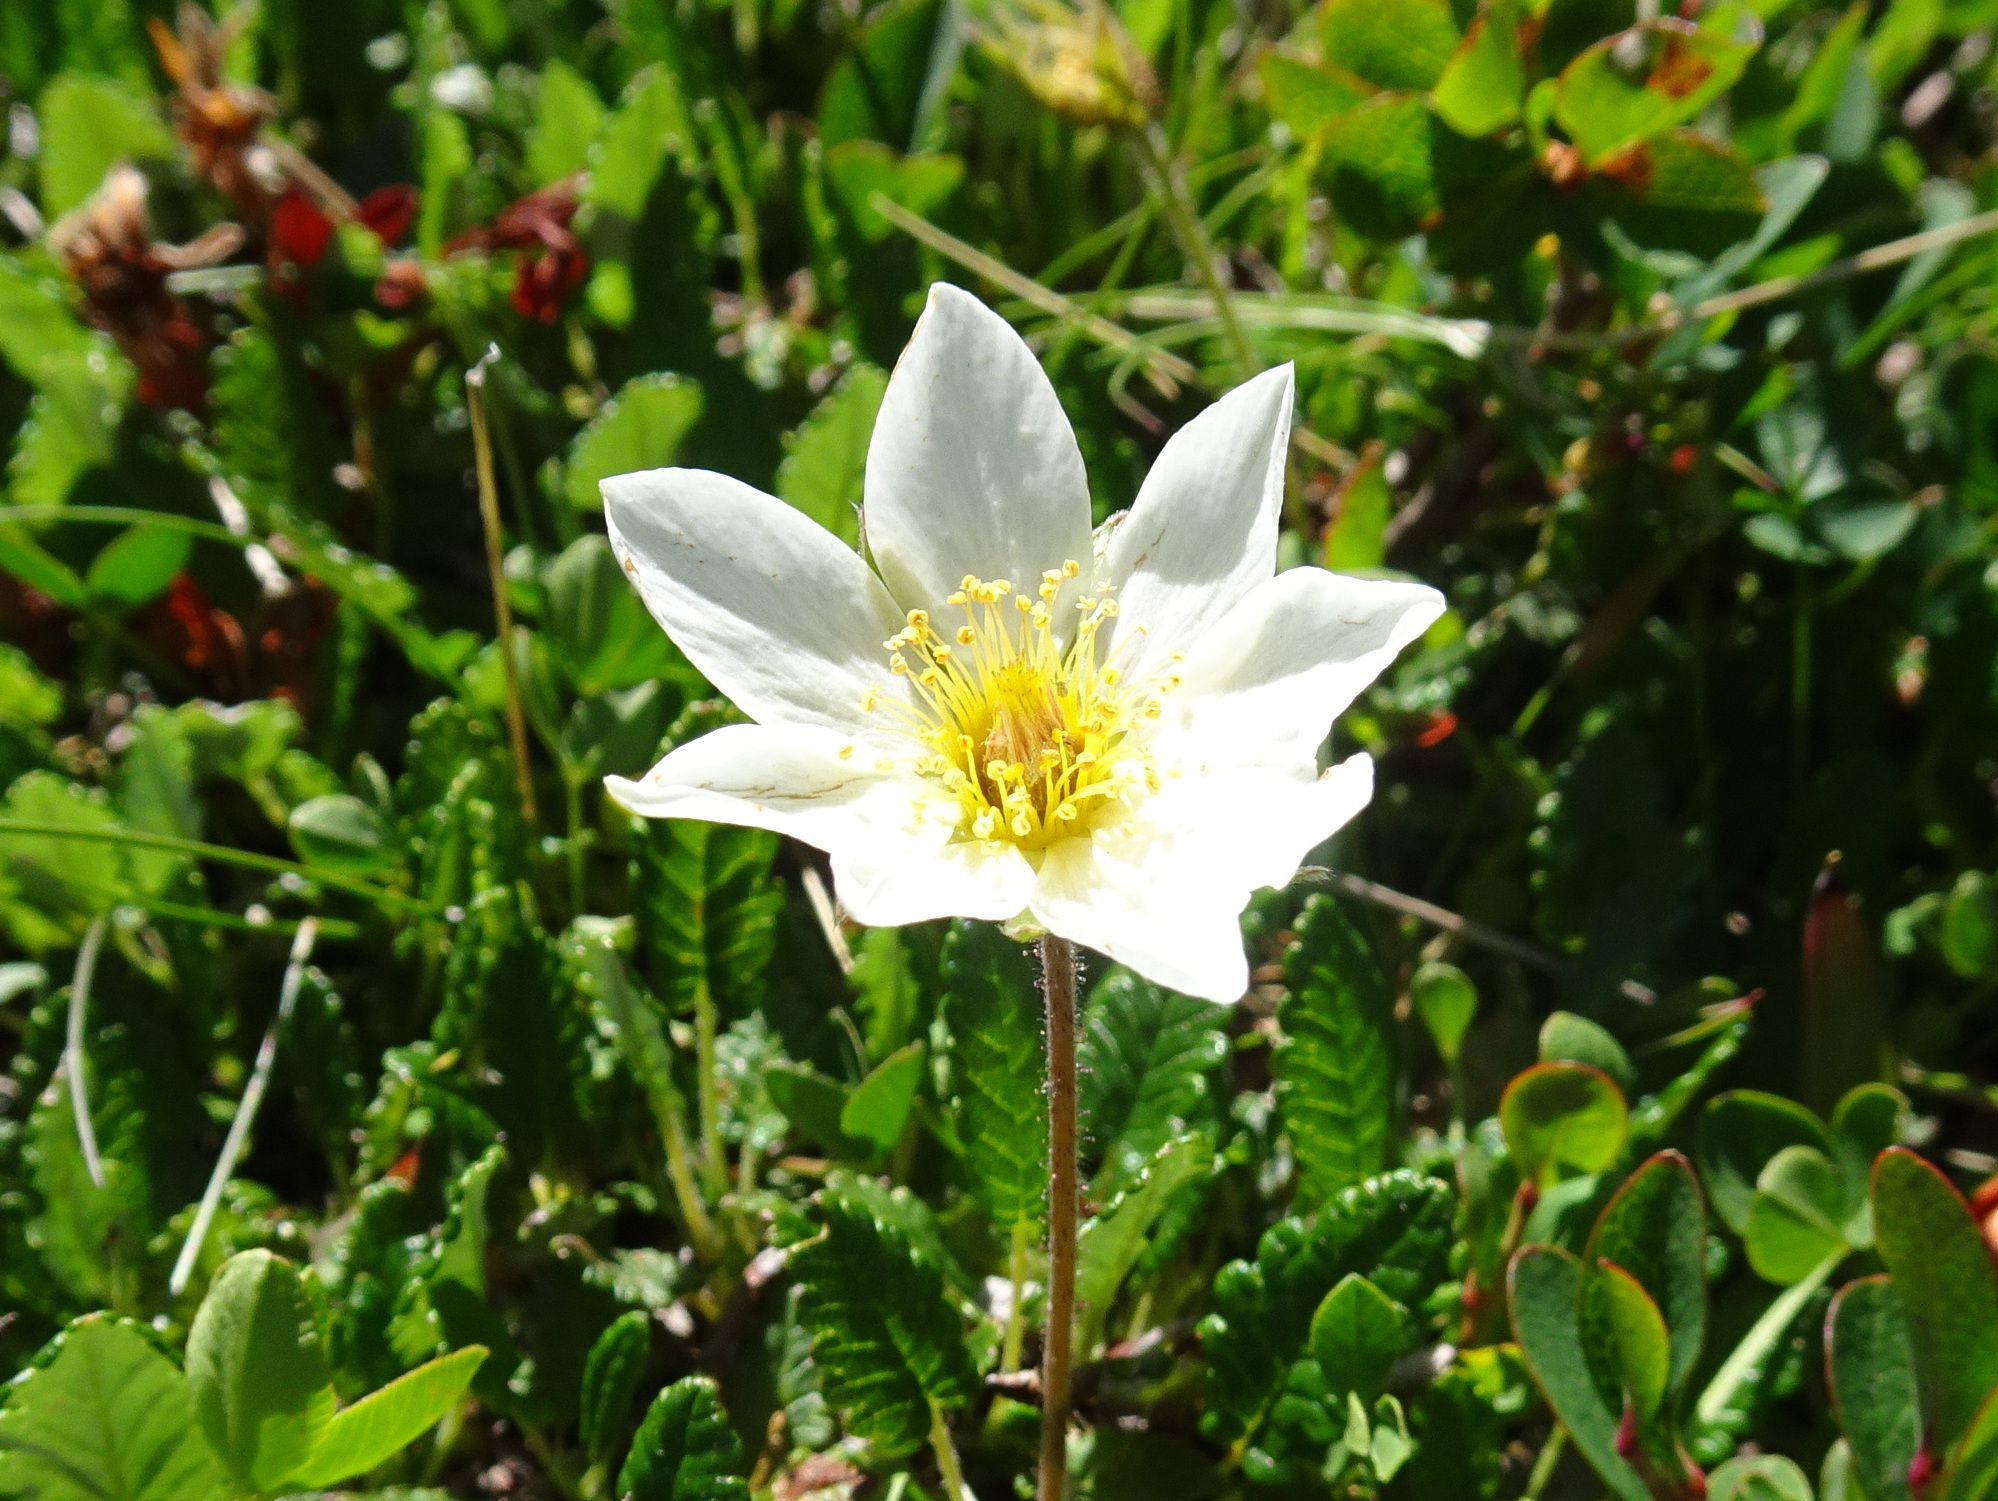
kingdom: Plantae
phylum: Tracheophyta
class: Magnoliopsida
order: Rosales
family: Rosaceae
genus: Dryas
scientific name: Dryas octopetala
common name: Eight-petal mountain-avens
